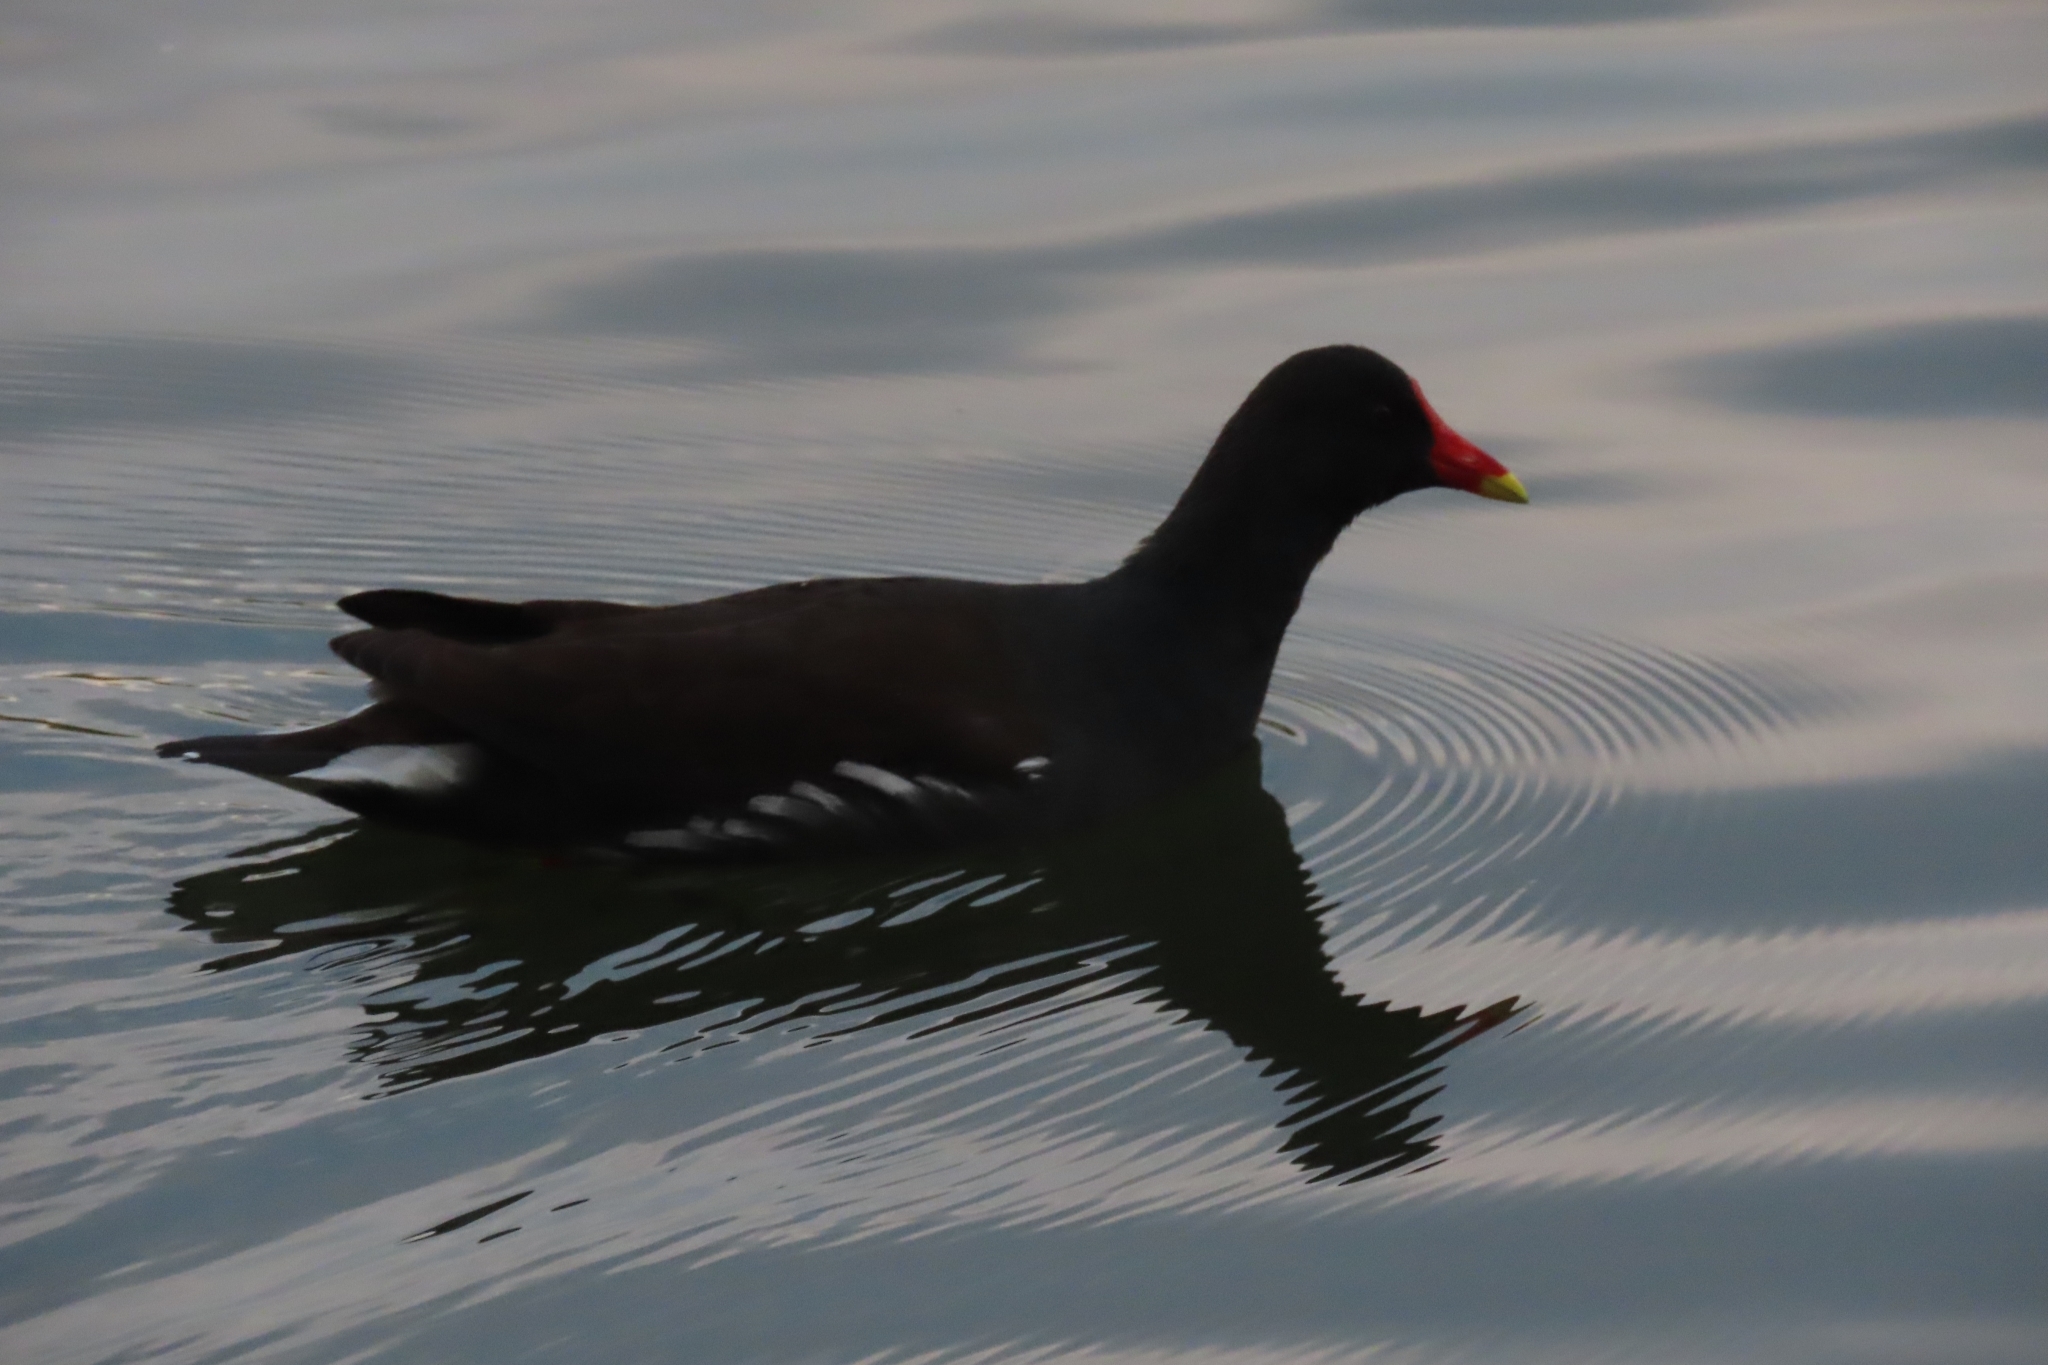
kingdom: Animalia
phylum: Chordata
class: Aves
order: Gruiformes
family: Rallidae
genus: Gallinula
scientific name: Gallinula chloropus
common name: Common moorhen
